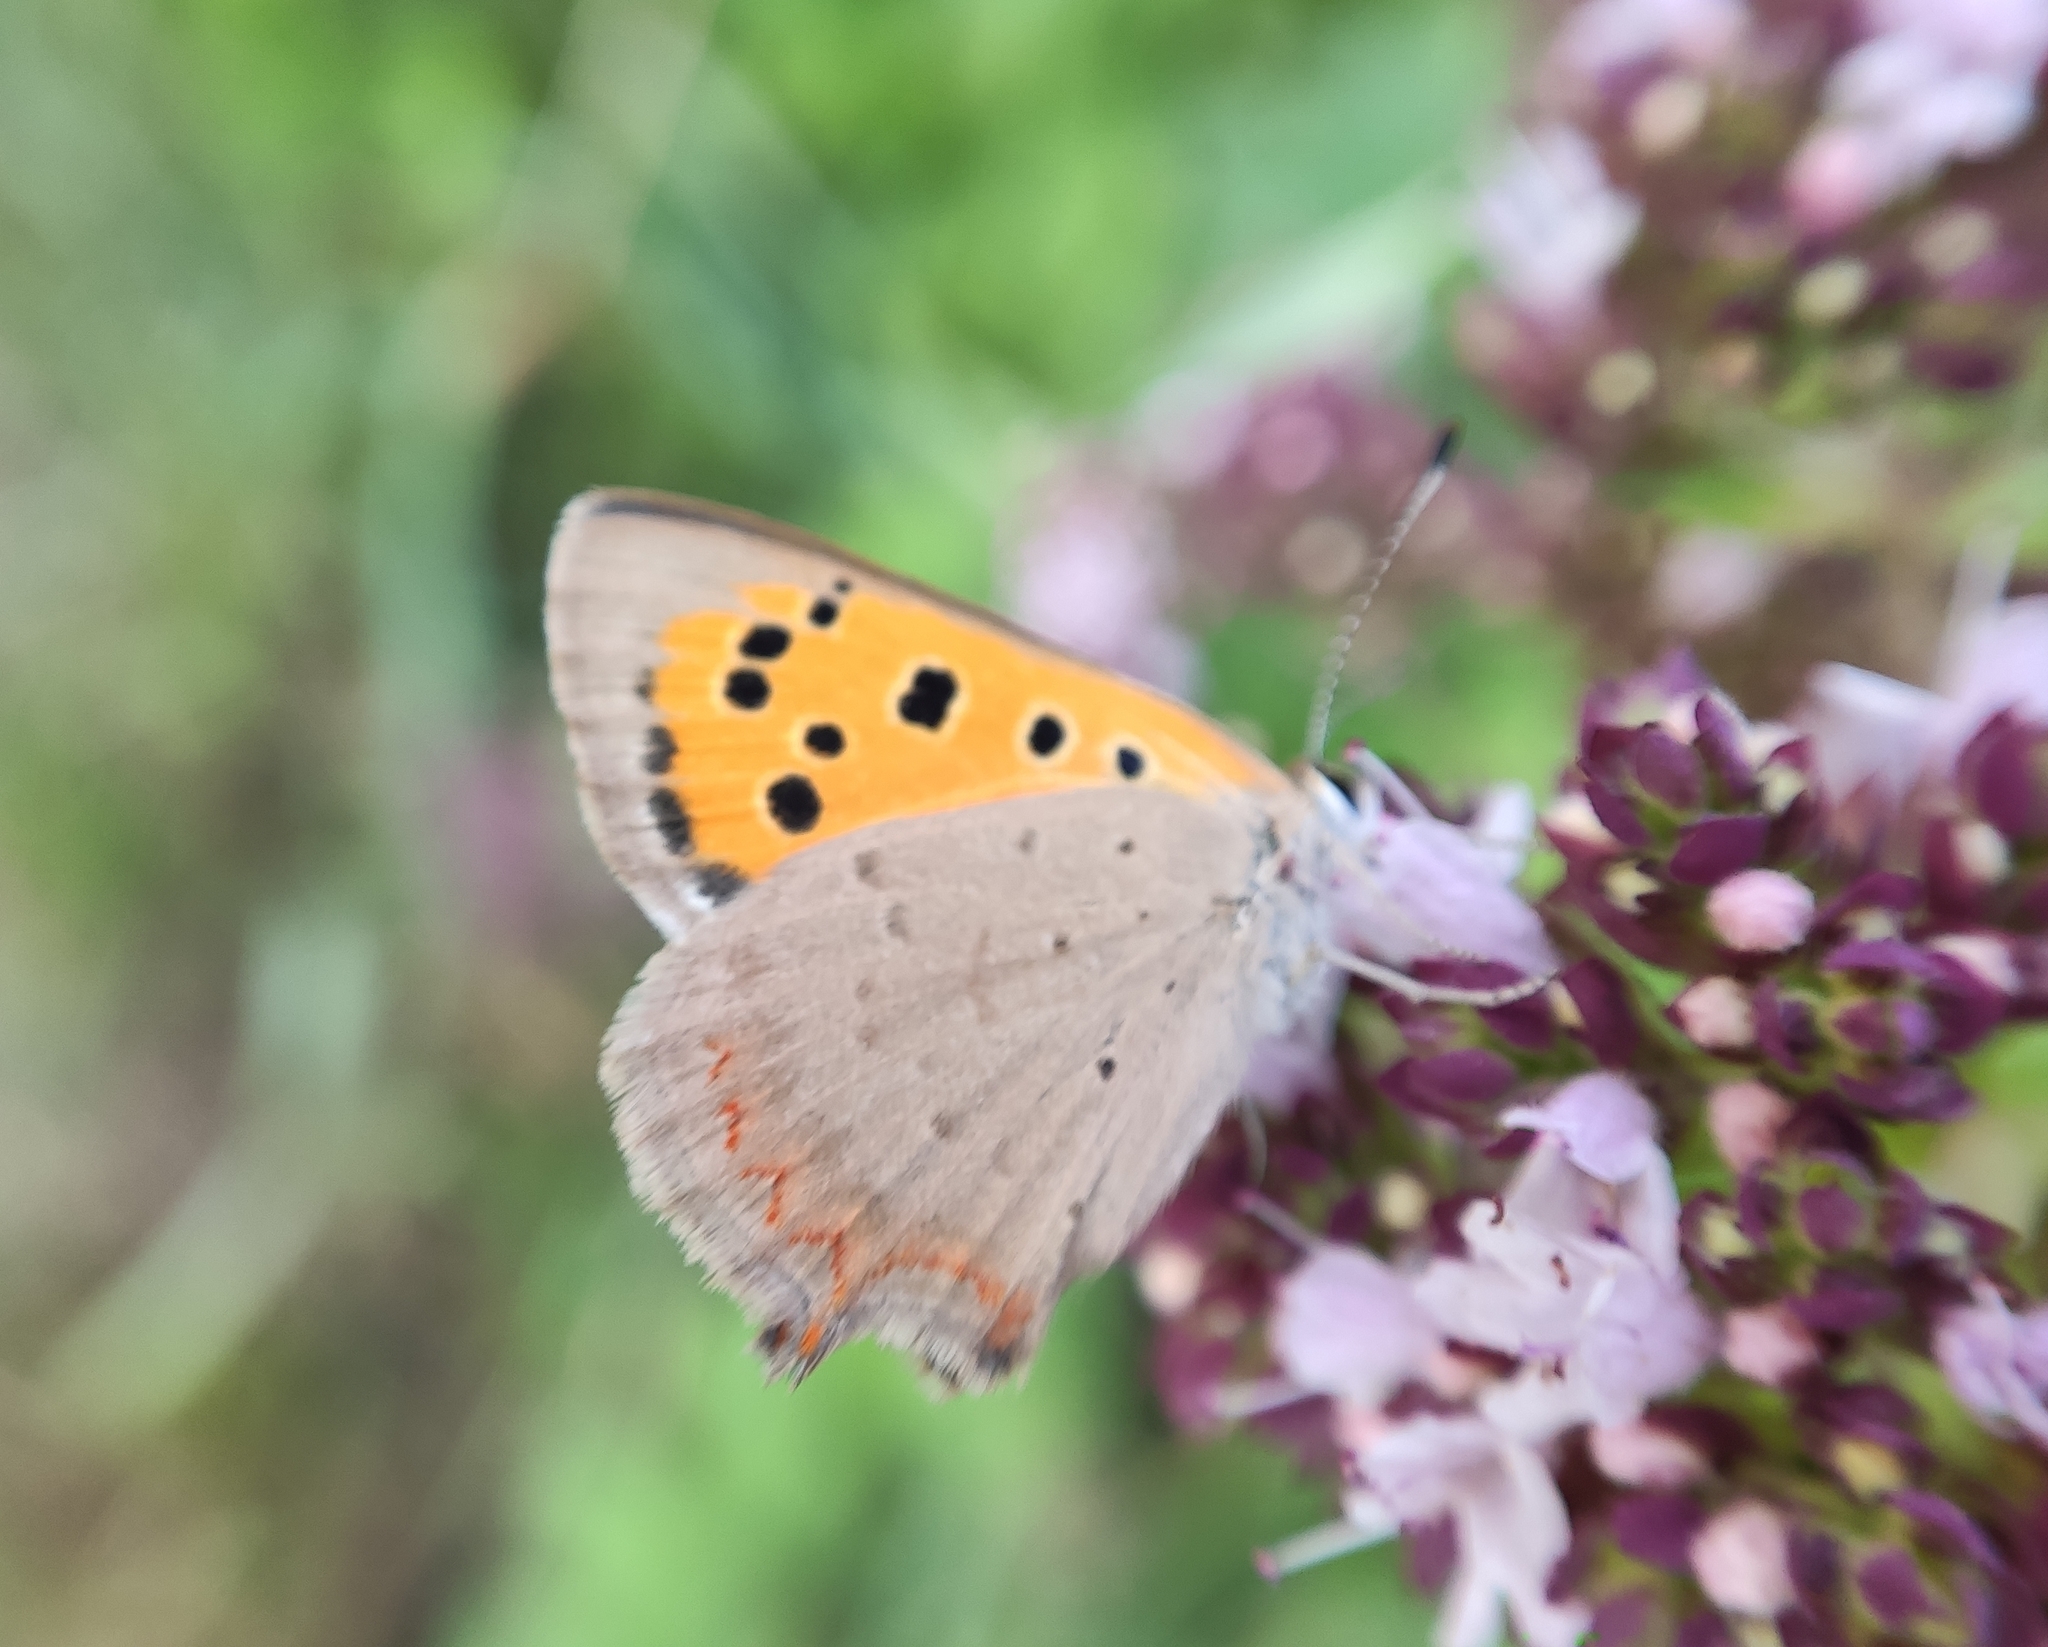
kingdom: Animalia
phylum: Arthropoda
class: Insecta
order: Lepidoptera
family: Lycaenidae
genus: Lycaena
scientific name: Lycaena phlaeas
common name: Small copper
